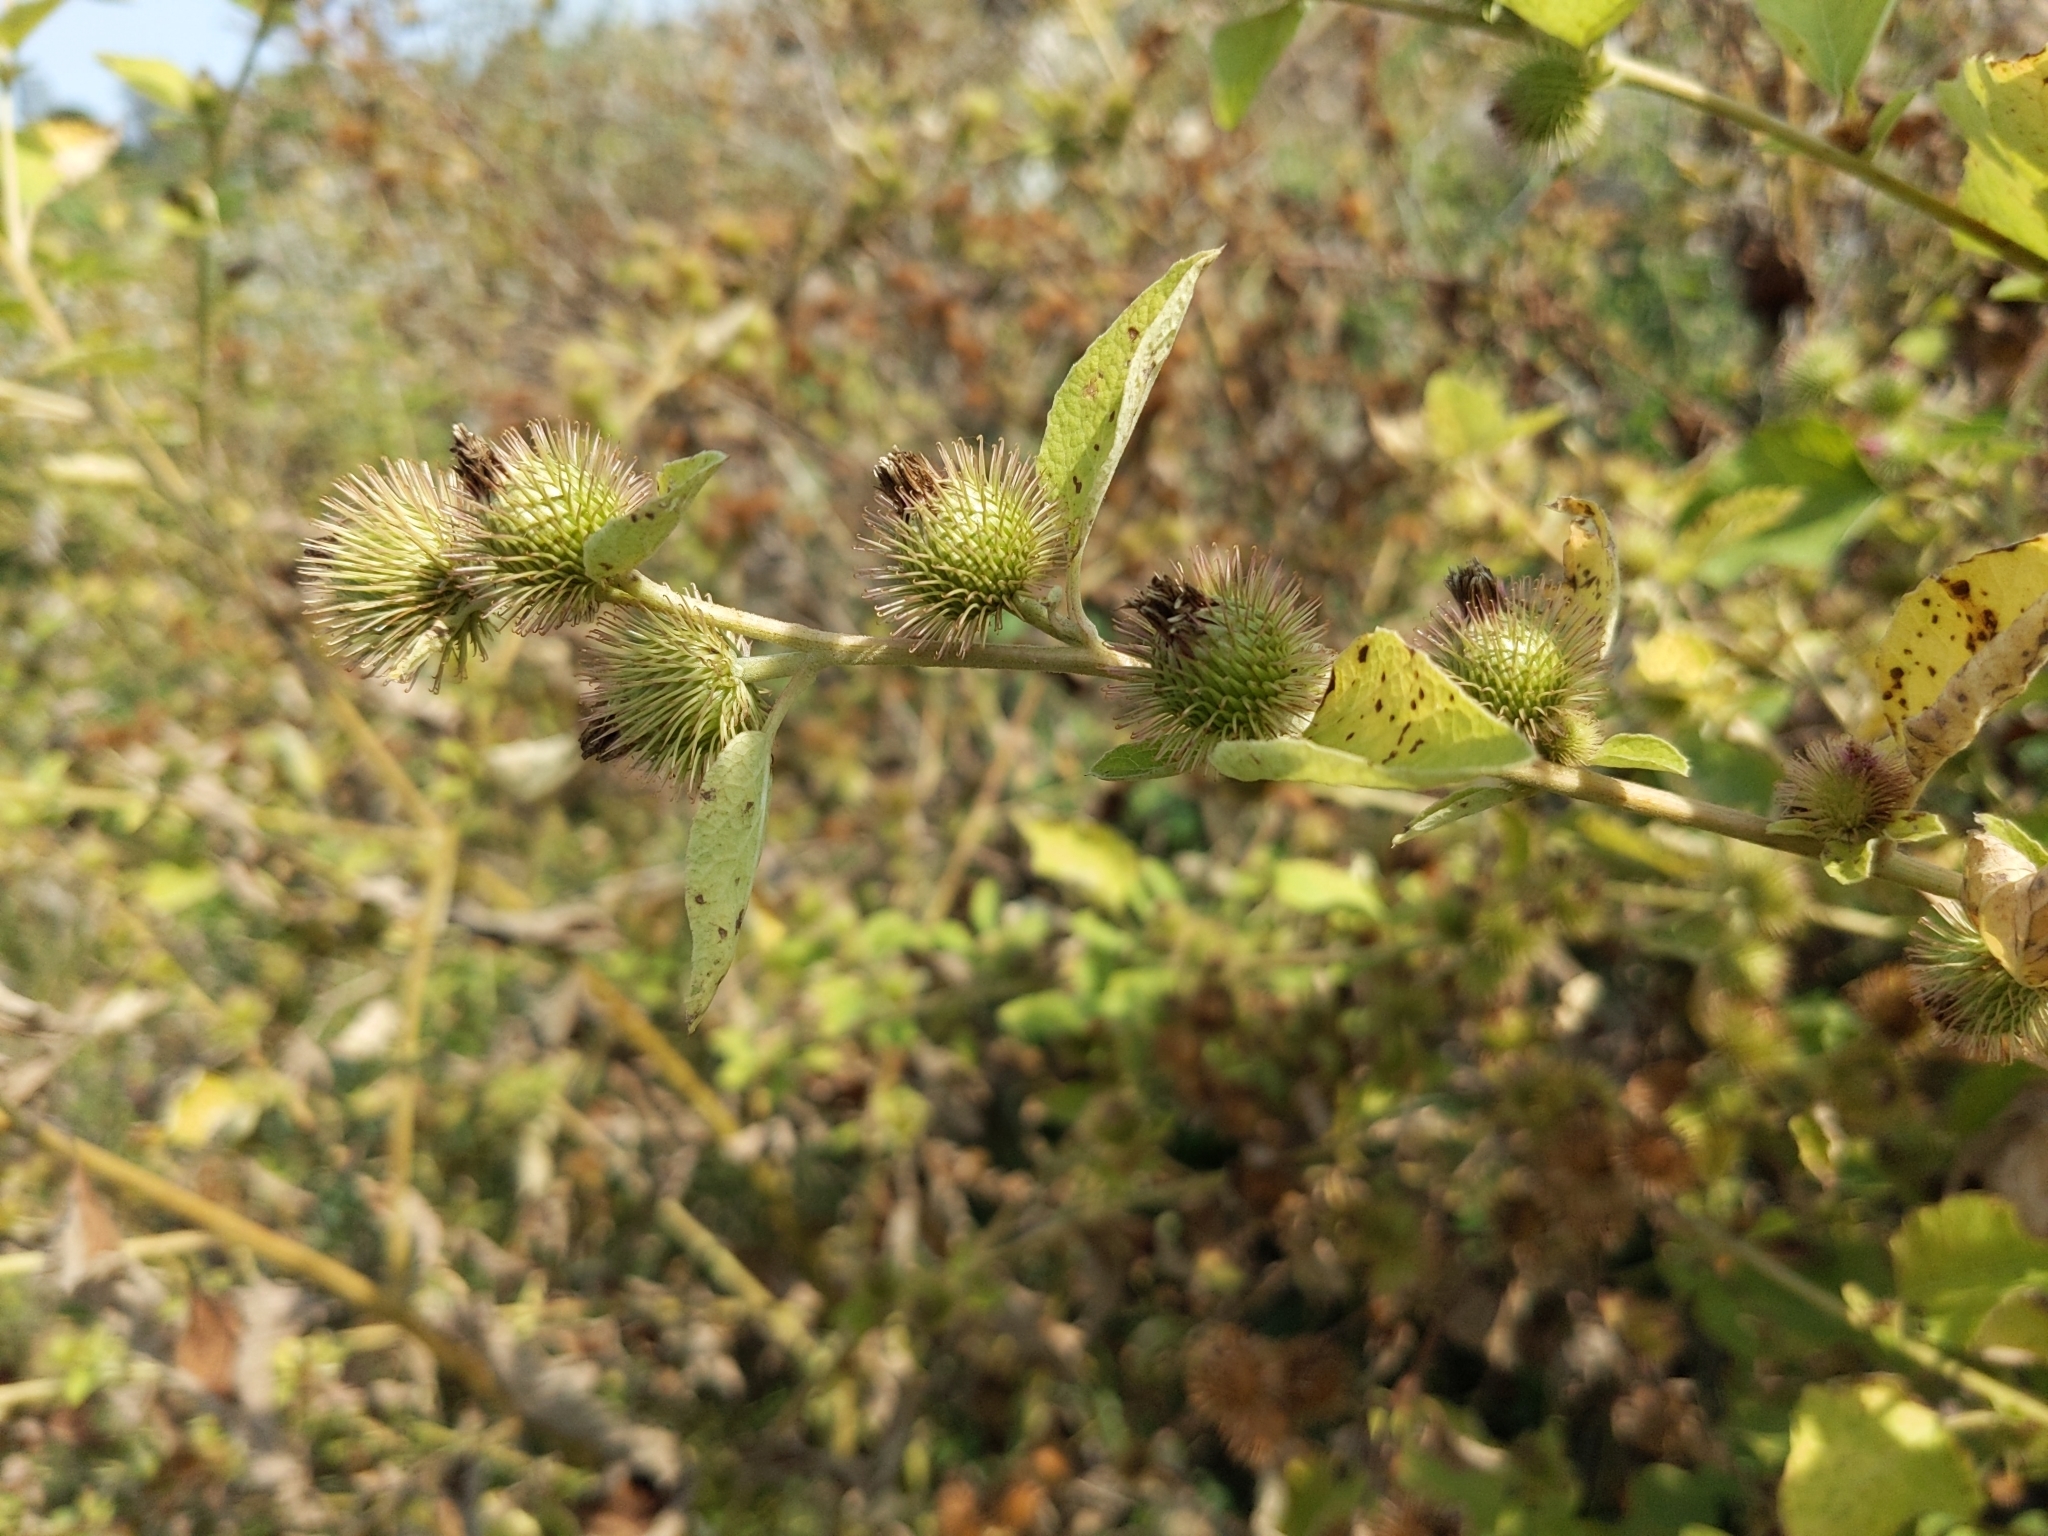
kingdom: Plantae
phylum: Tracheophyta
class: Magnoliopsida
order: Asterales
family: Asteraceae
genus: Arctium
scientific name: Arctium minus
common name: Lesser burdock
